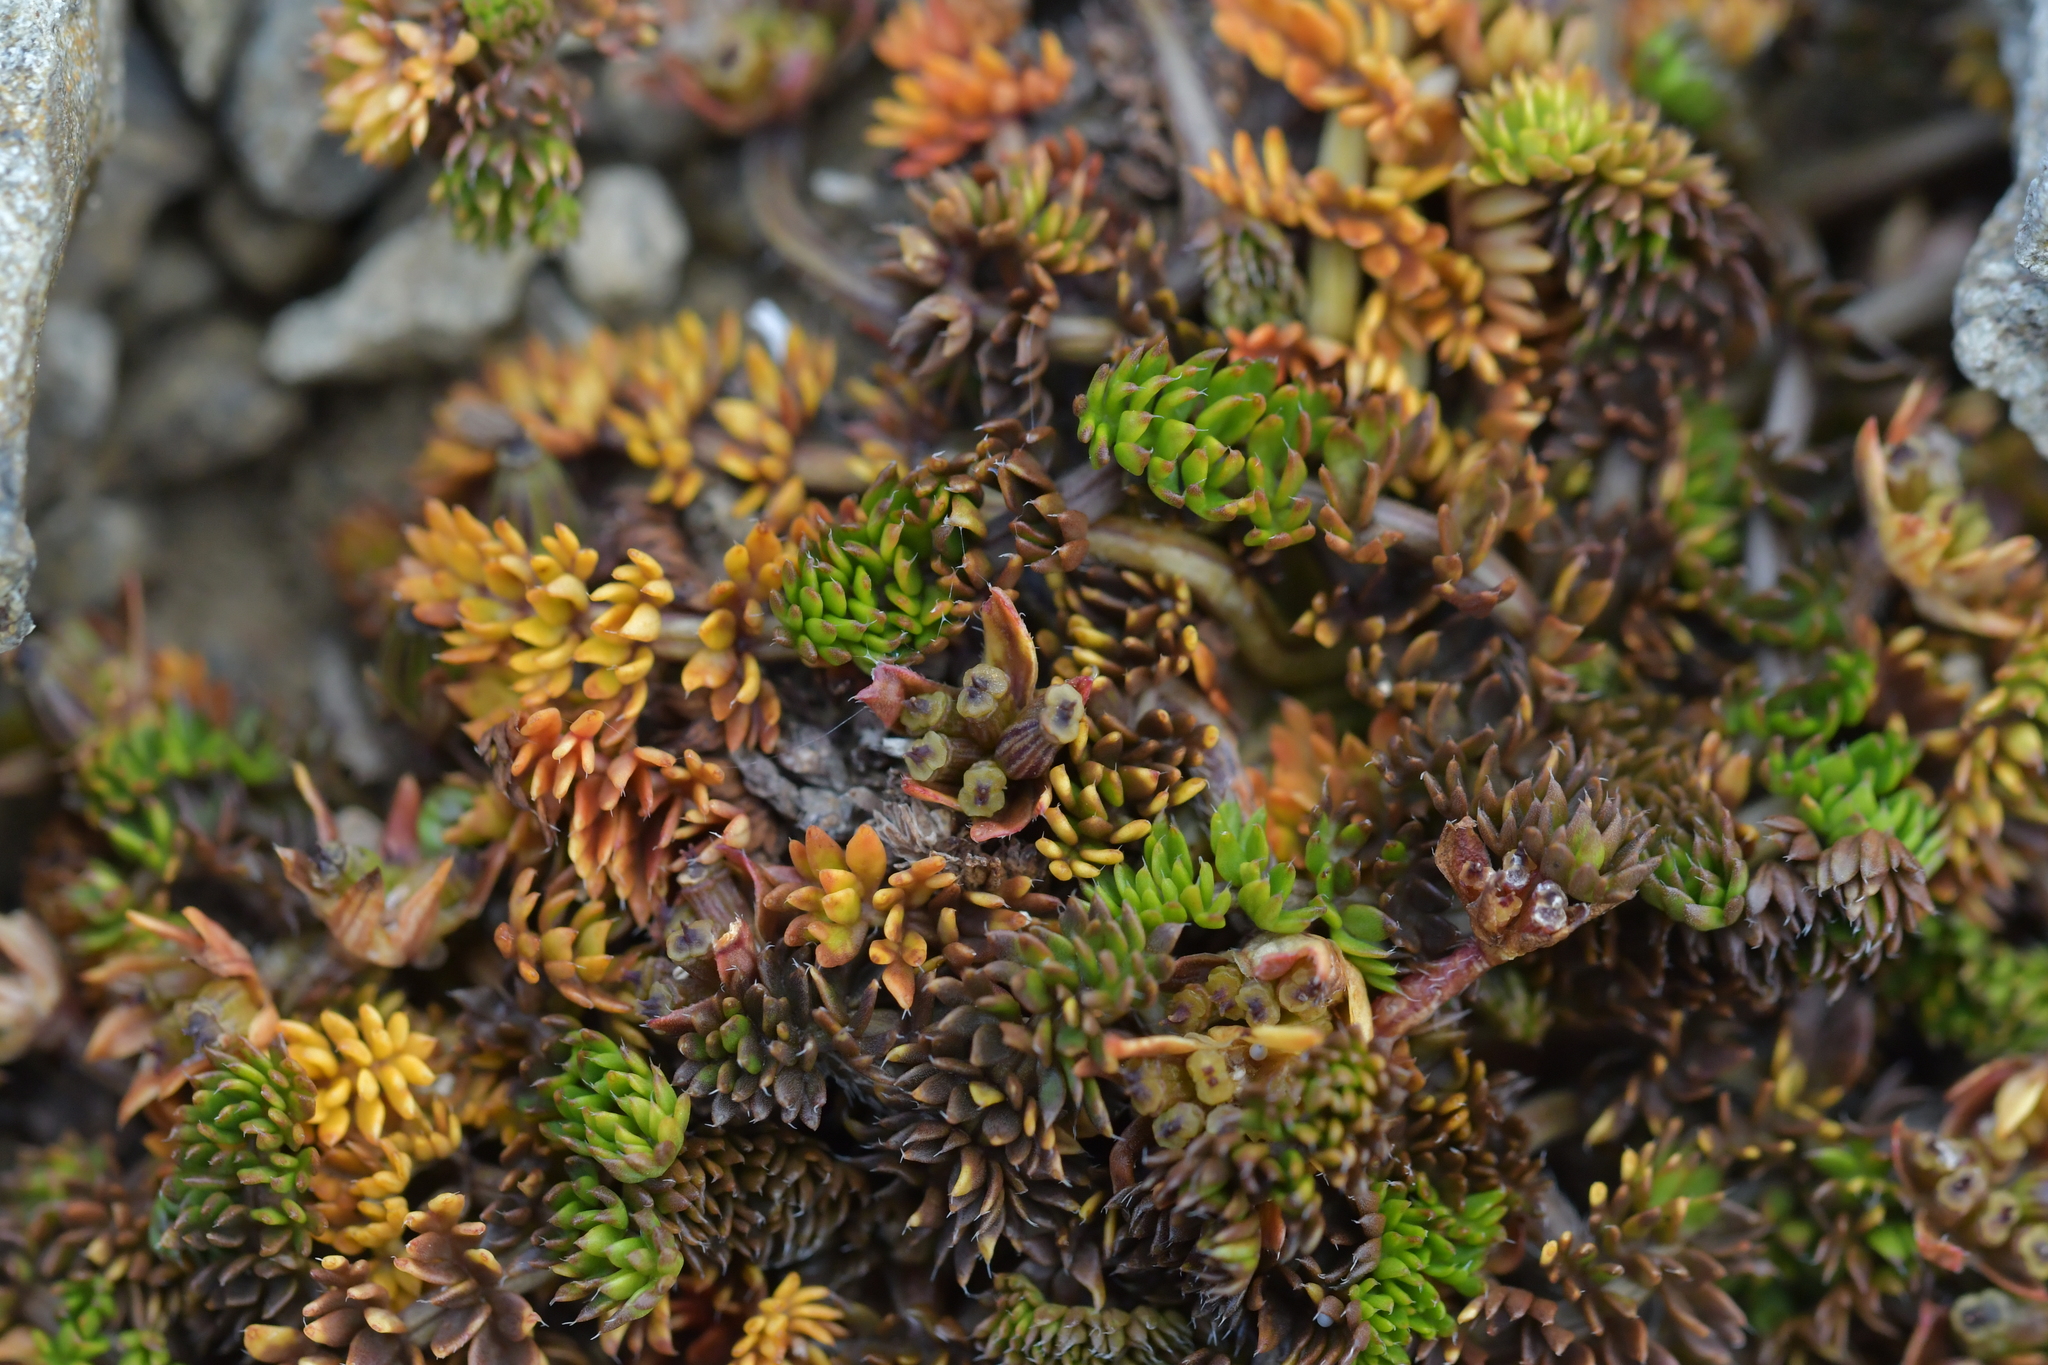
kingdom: Plantae
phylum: Tracheophyta
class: Magnoliopsida
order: Apiales
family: Apiaceae
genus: Chaerophyllum
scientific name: Chaerophyllum colensoi
